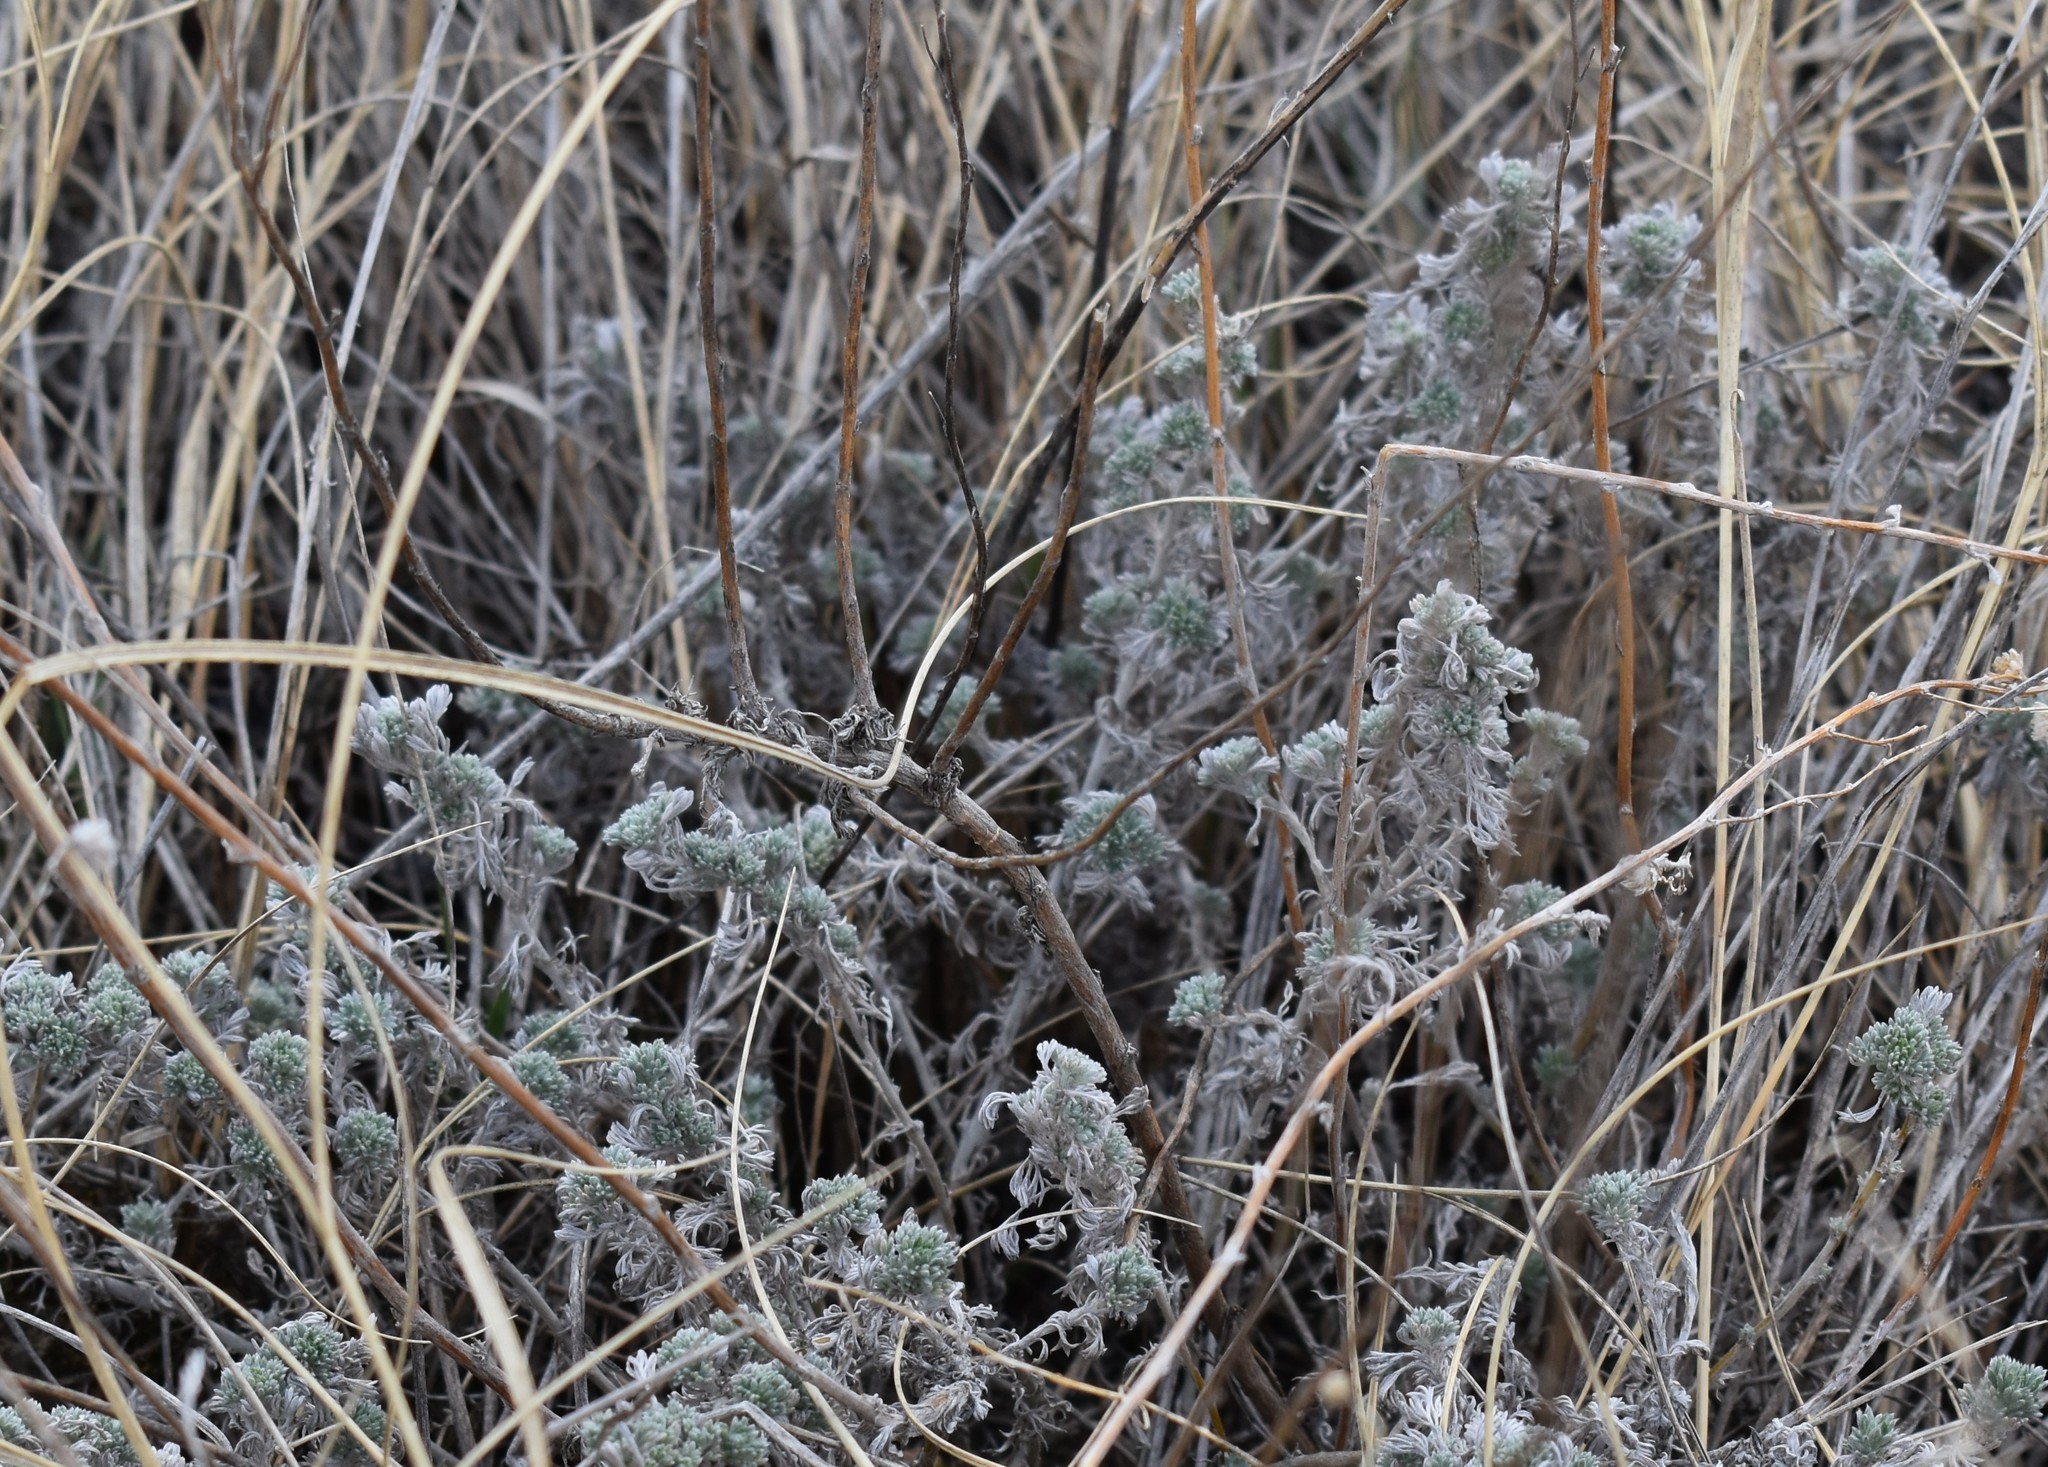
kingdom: Plantae
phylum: Tracheophyta
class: Magnoliopsida
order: Asterales
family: Asteraceae
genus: Artemisia
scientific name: Artemisia frigida
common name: Prairie sagewort
